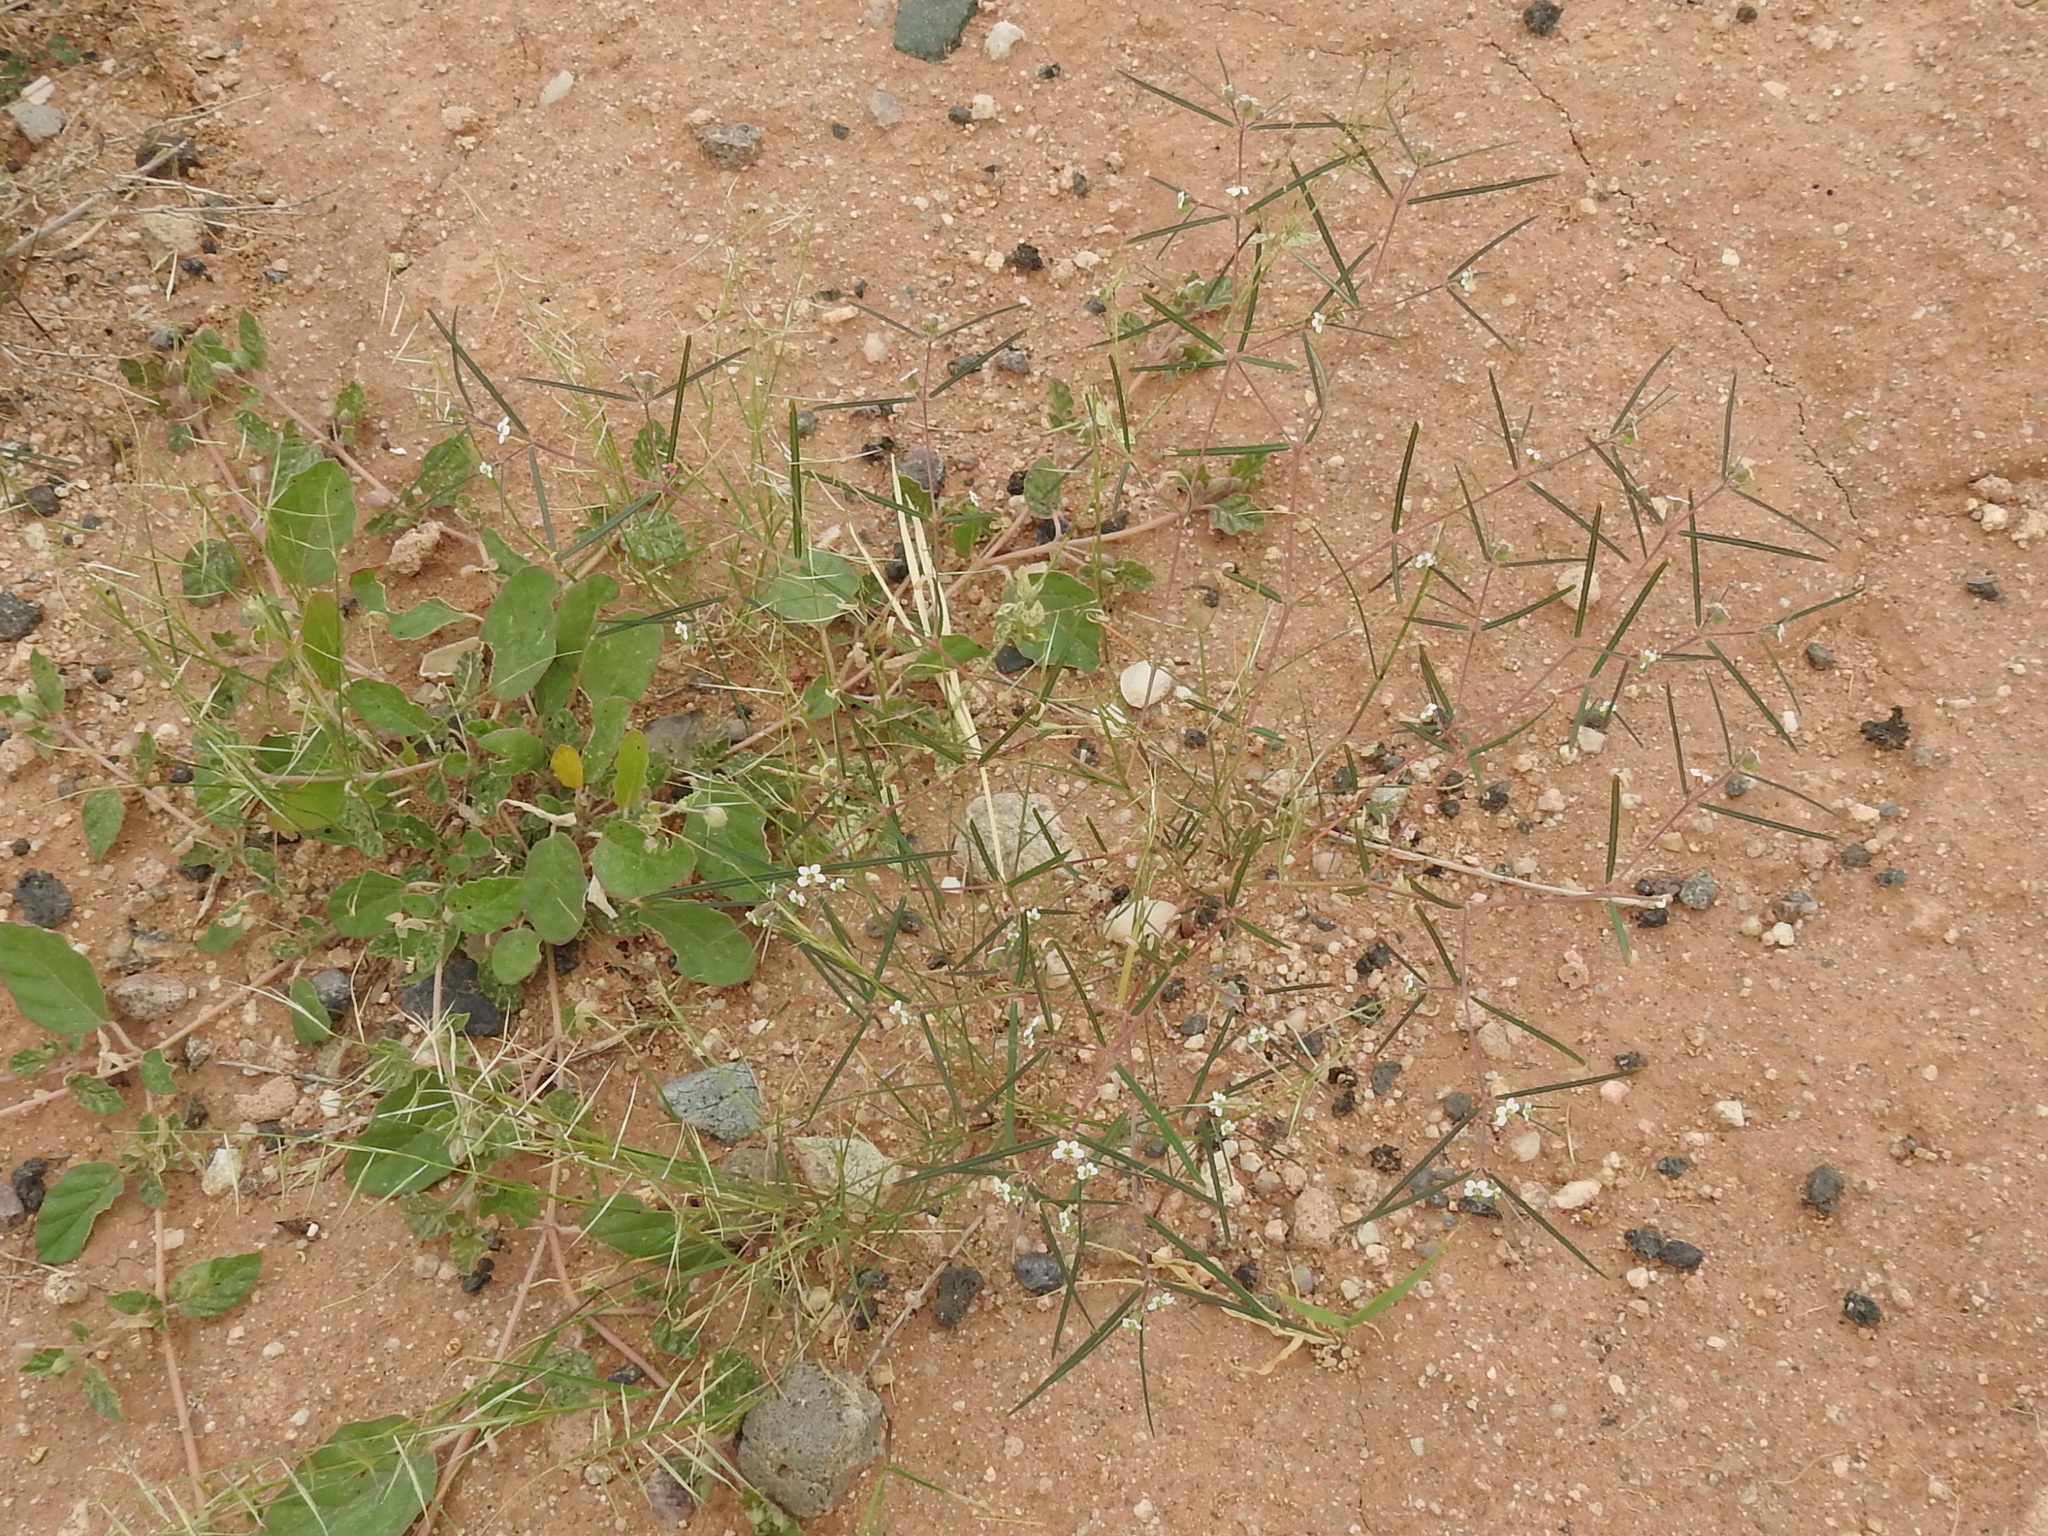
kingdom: Plantae
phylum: Tracheophyta
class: Magnoliopsida
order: Malpighiales
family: Euphorbiaceae
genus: Euphorbia
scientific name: Euphorbia florida
